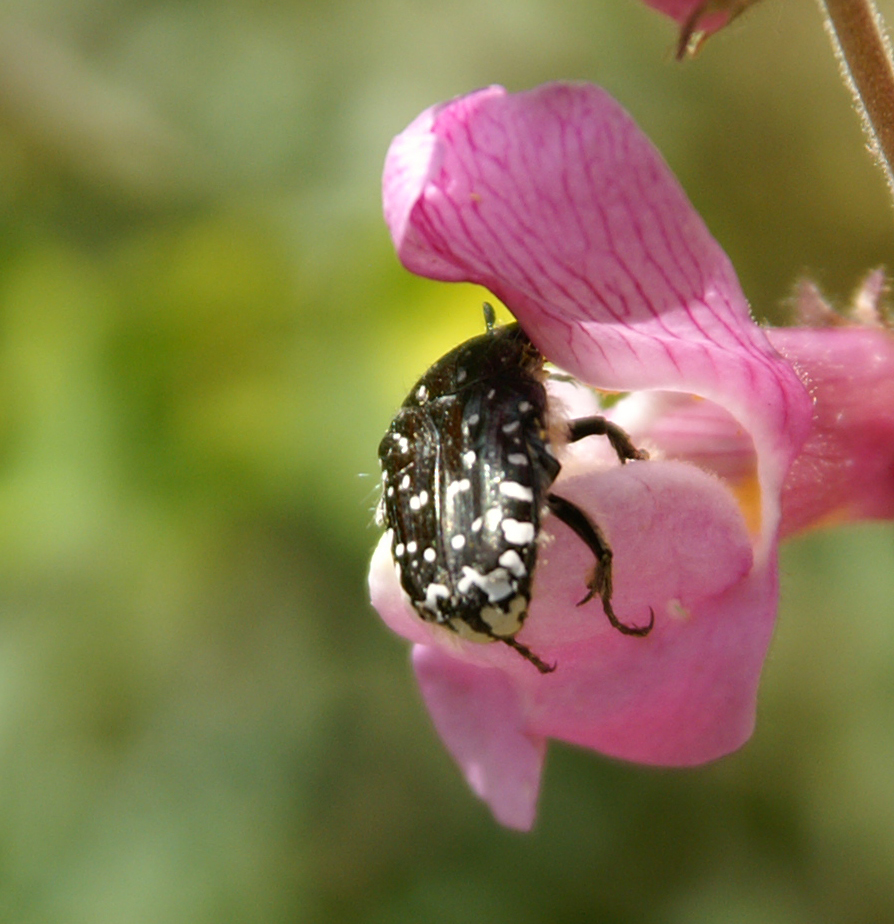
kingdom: Animalia
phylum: Arthropoda
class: Insecta
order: Coleoptera
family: Scarabaeidae
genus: Oxythyrea
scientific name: Oxythyrea funesta
